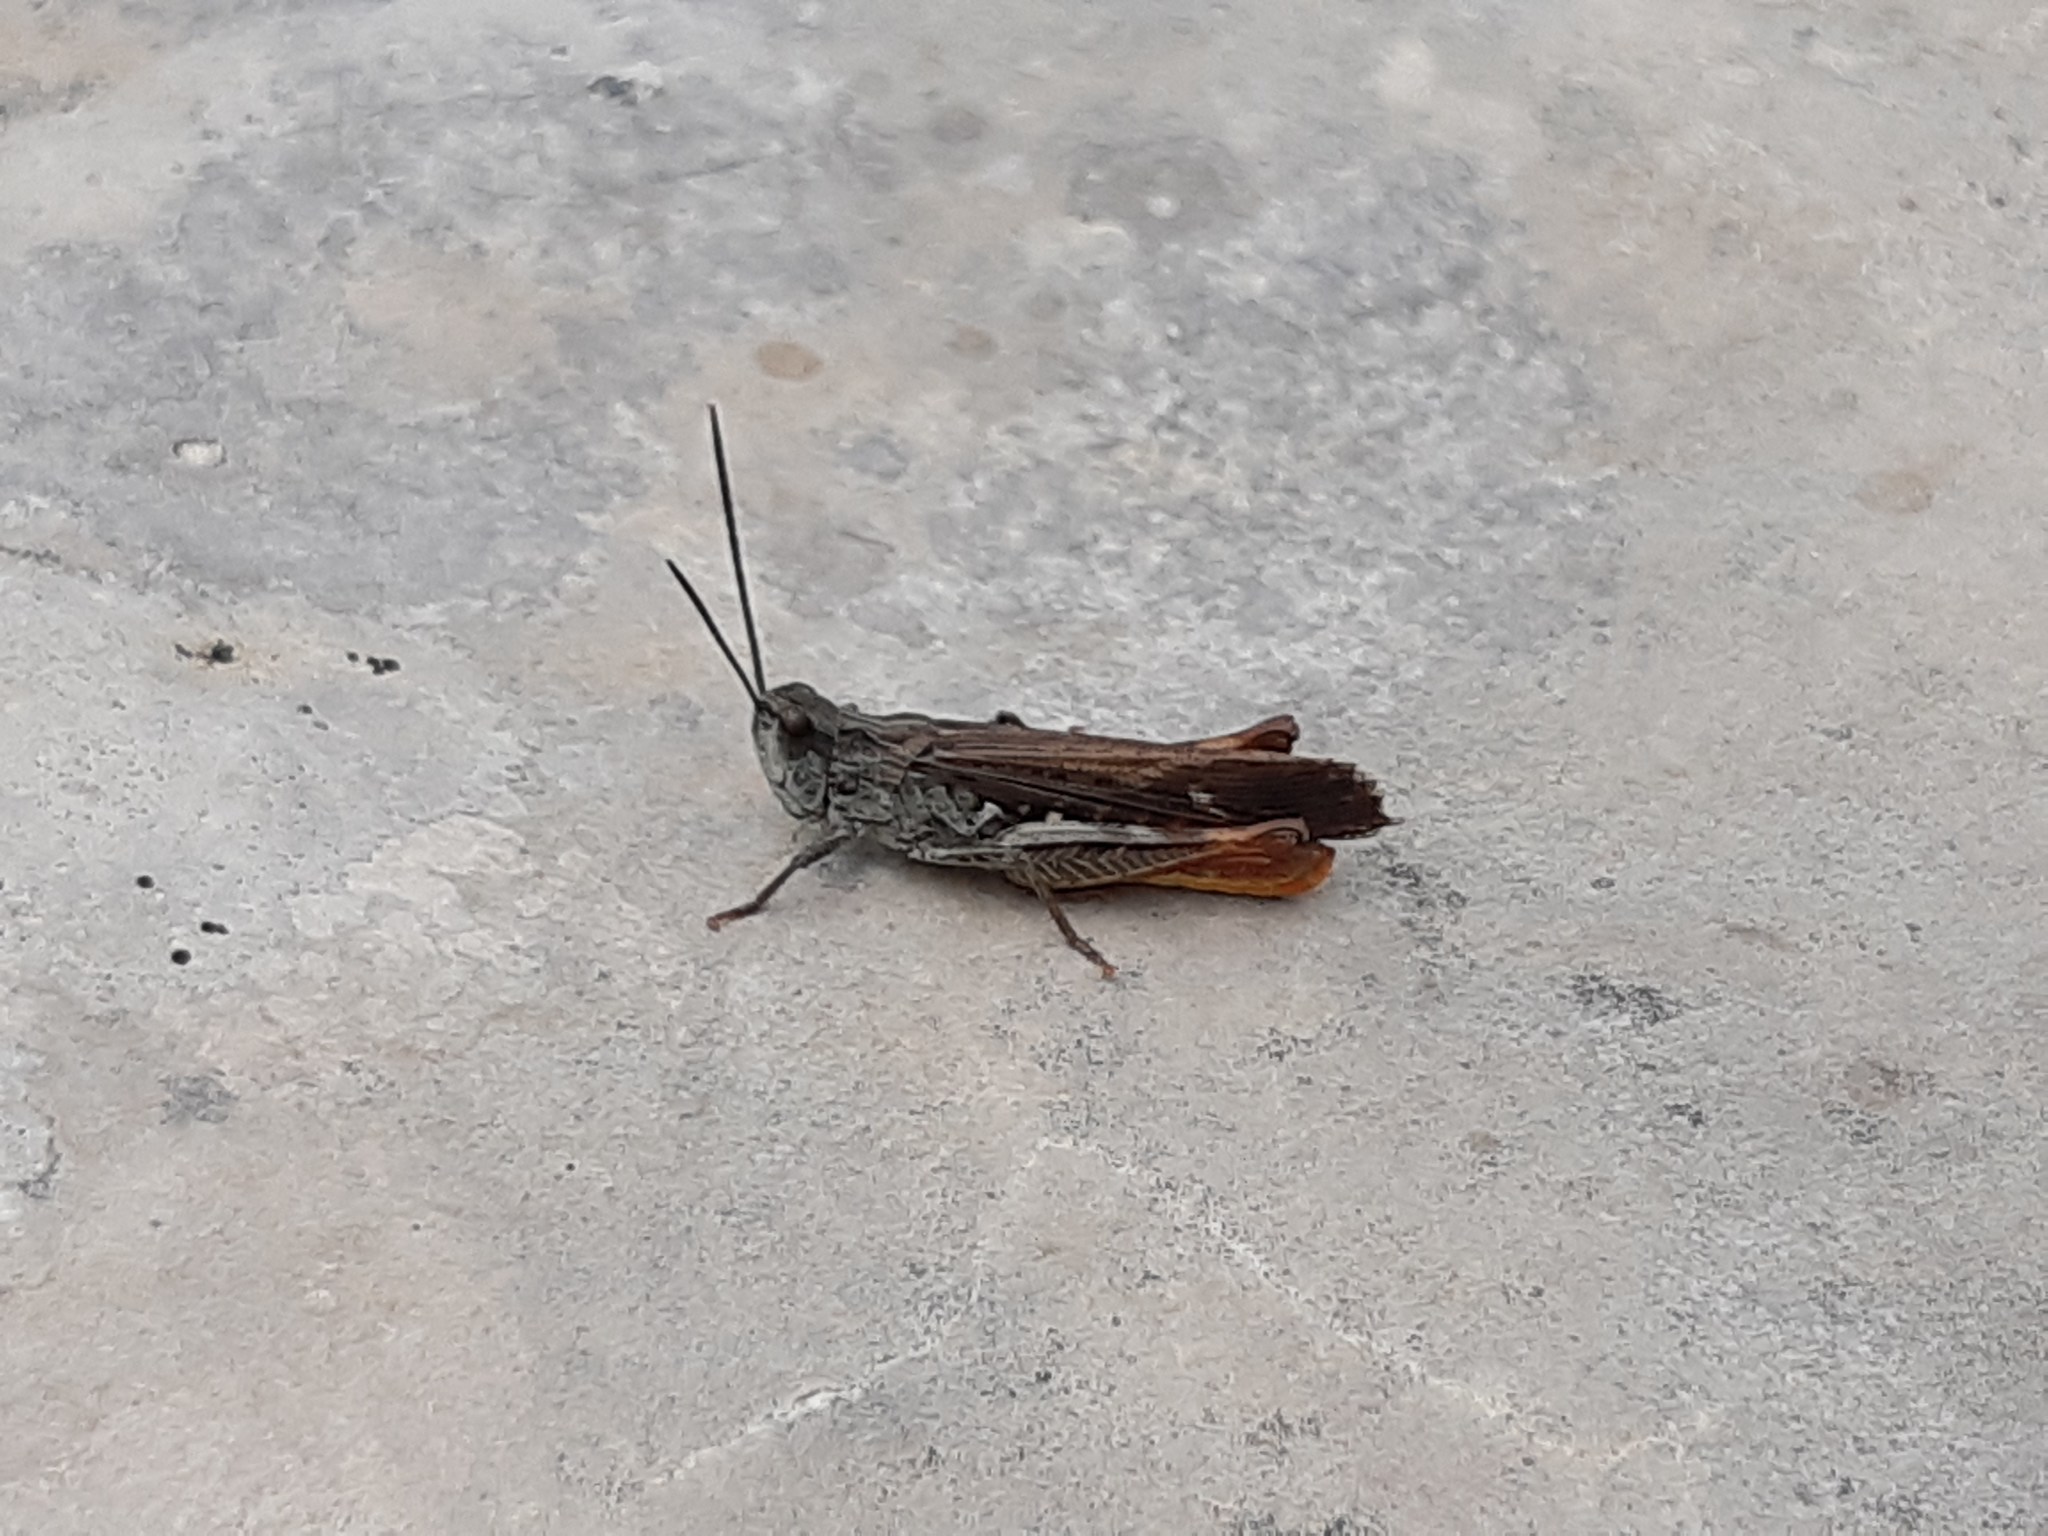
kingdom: Animalia
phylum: Arthropoda
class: Insecta
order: Orthoptera
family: Acrididae
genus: Chorthippus
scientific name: Chorthippus maritimus
